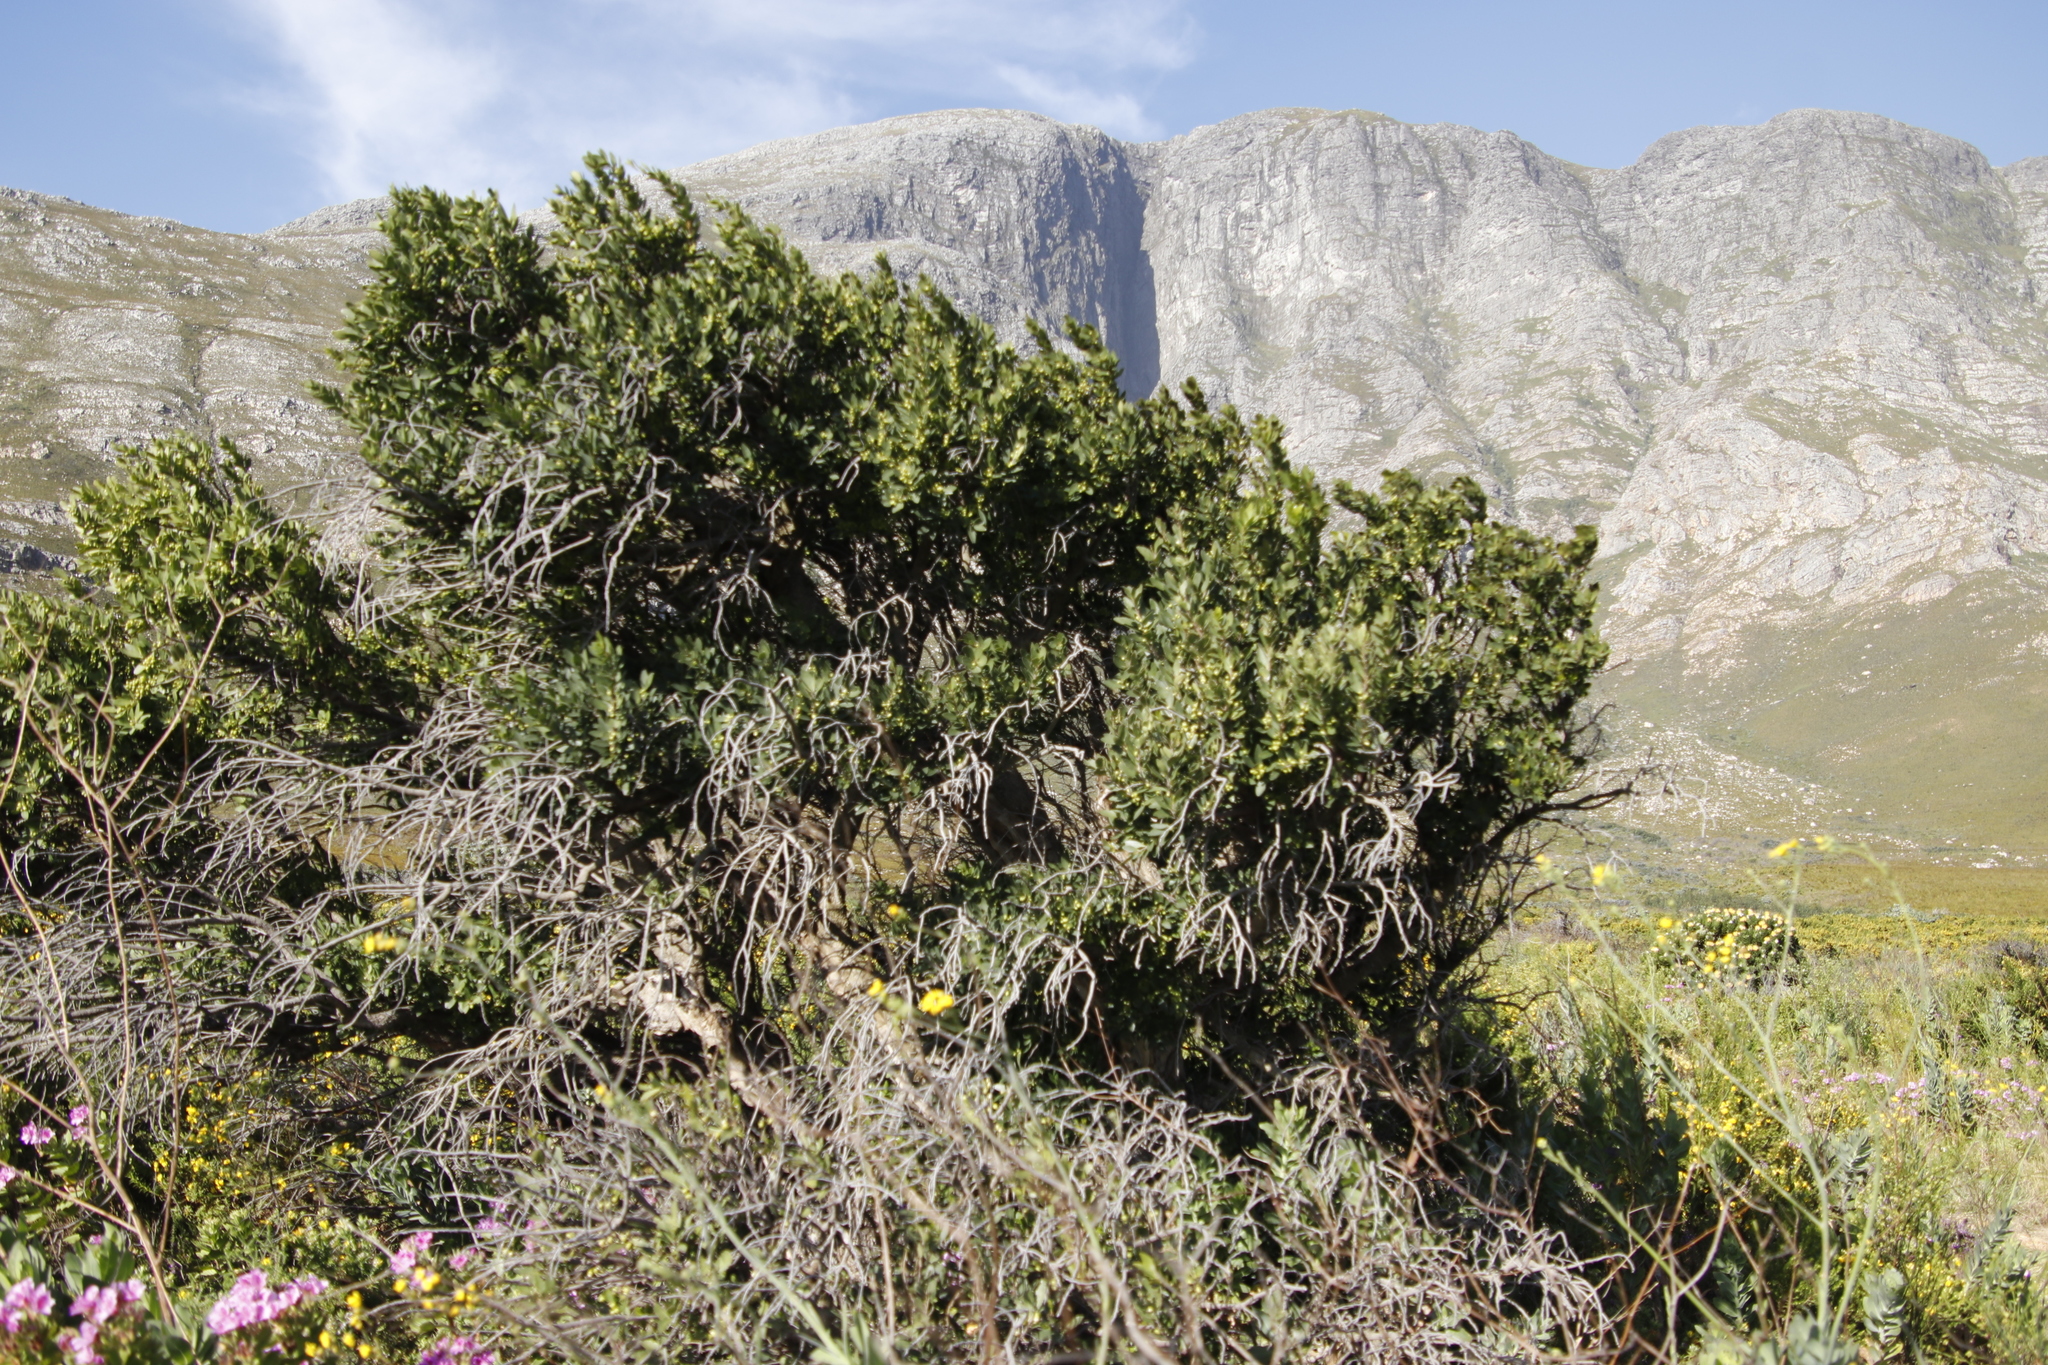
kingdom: Plantae
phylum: Tracheophyta
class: Magnoliopsida
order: Celastrales
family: Celastraceae
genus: Gymnosporia
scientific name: Gymnosporia laurina
